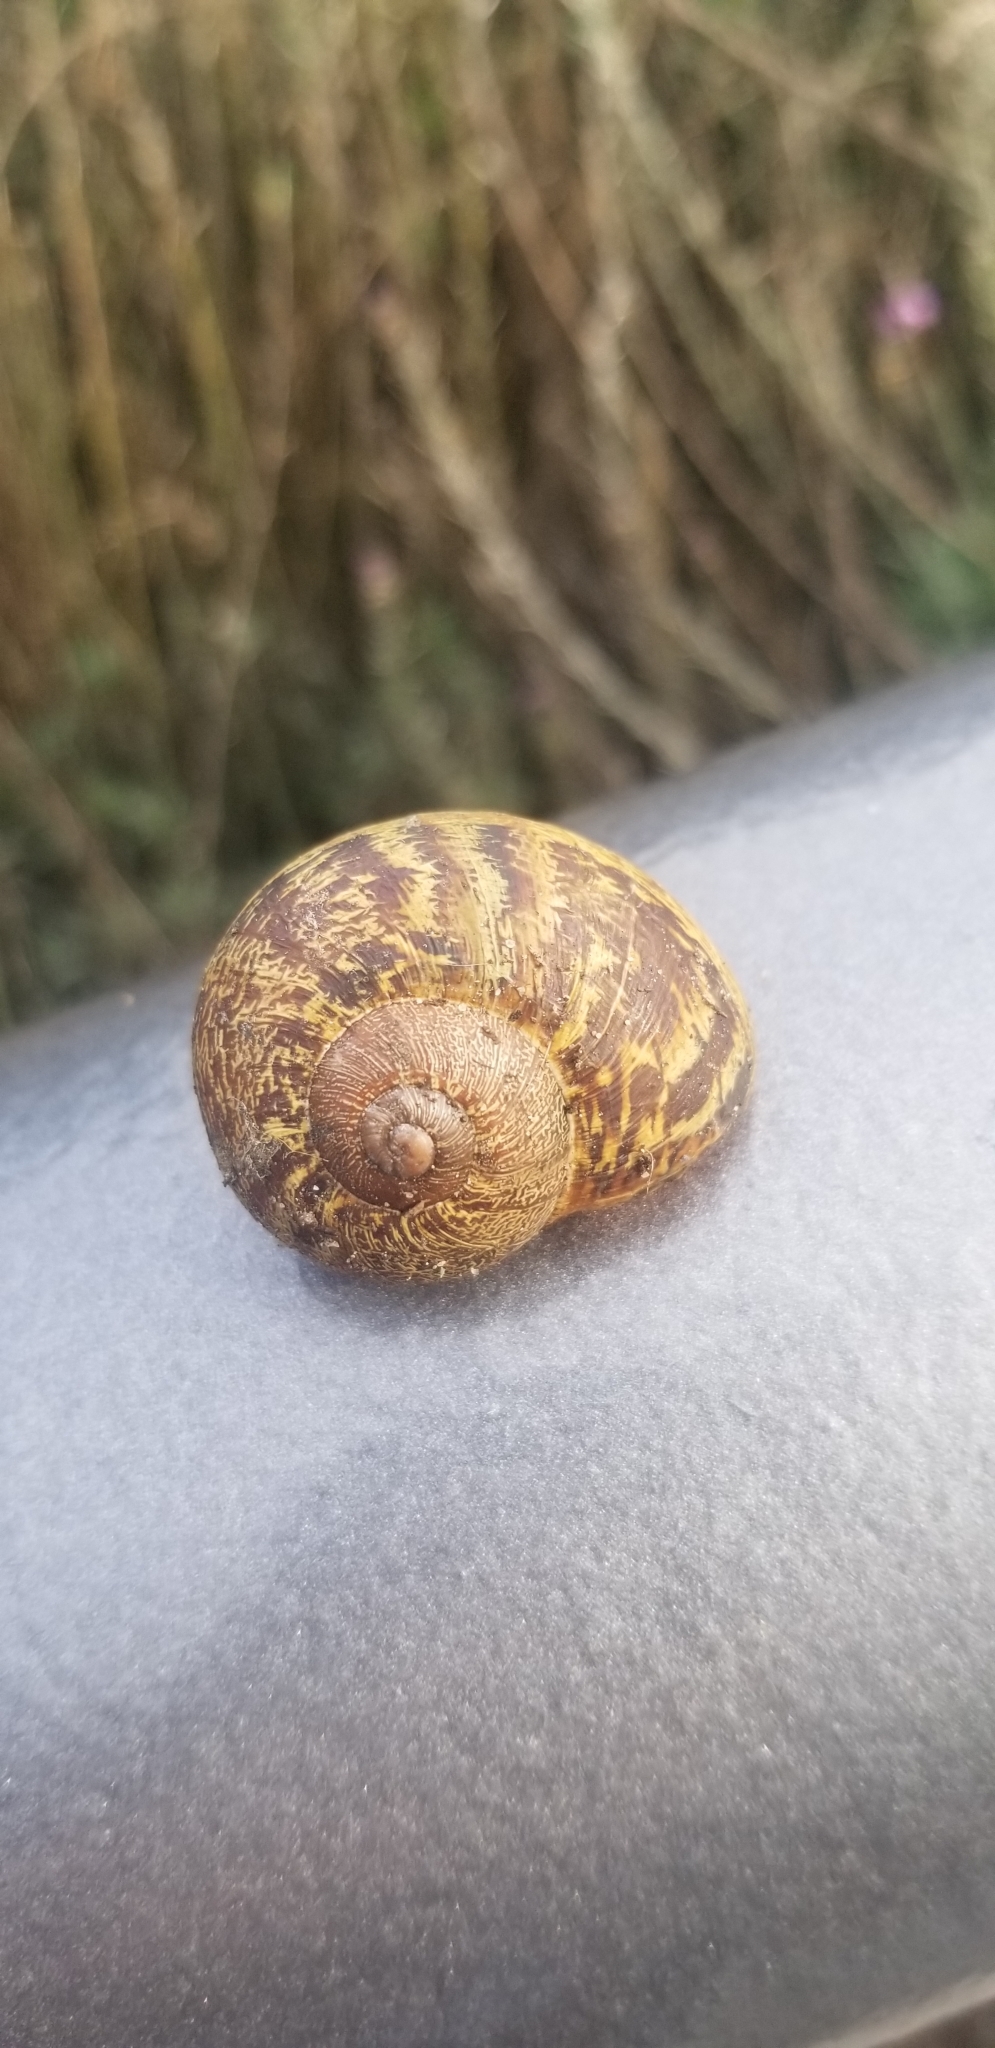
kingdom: Animalia
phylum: Mollusca
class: Gastropoda
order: Stylommatophora
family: Helicidae
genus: Cornu
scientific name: Cornu aspersum
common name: Brown garden snail
